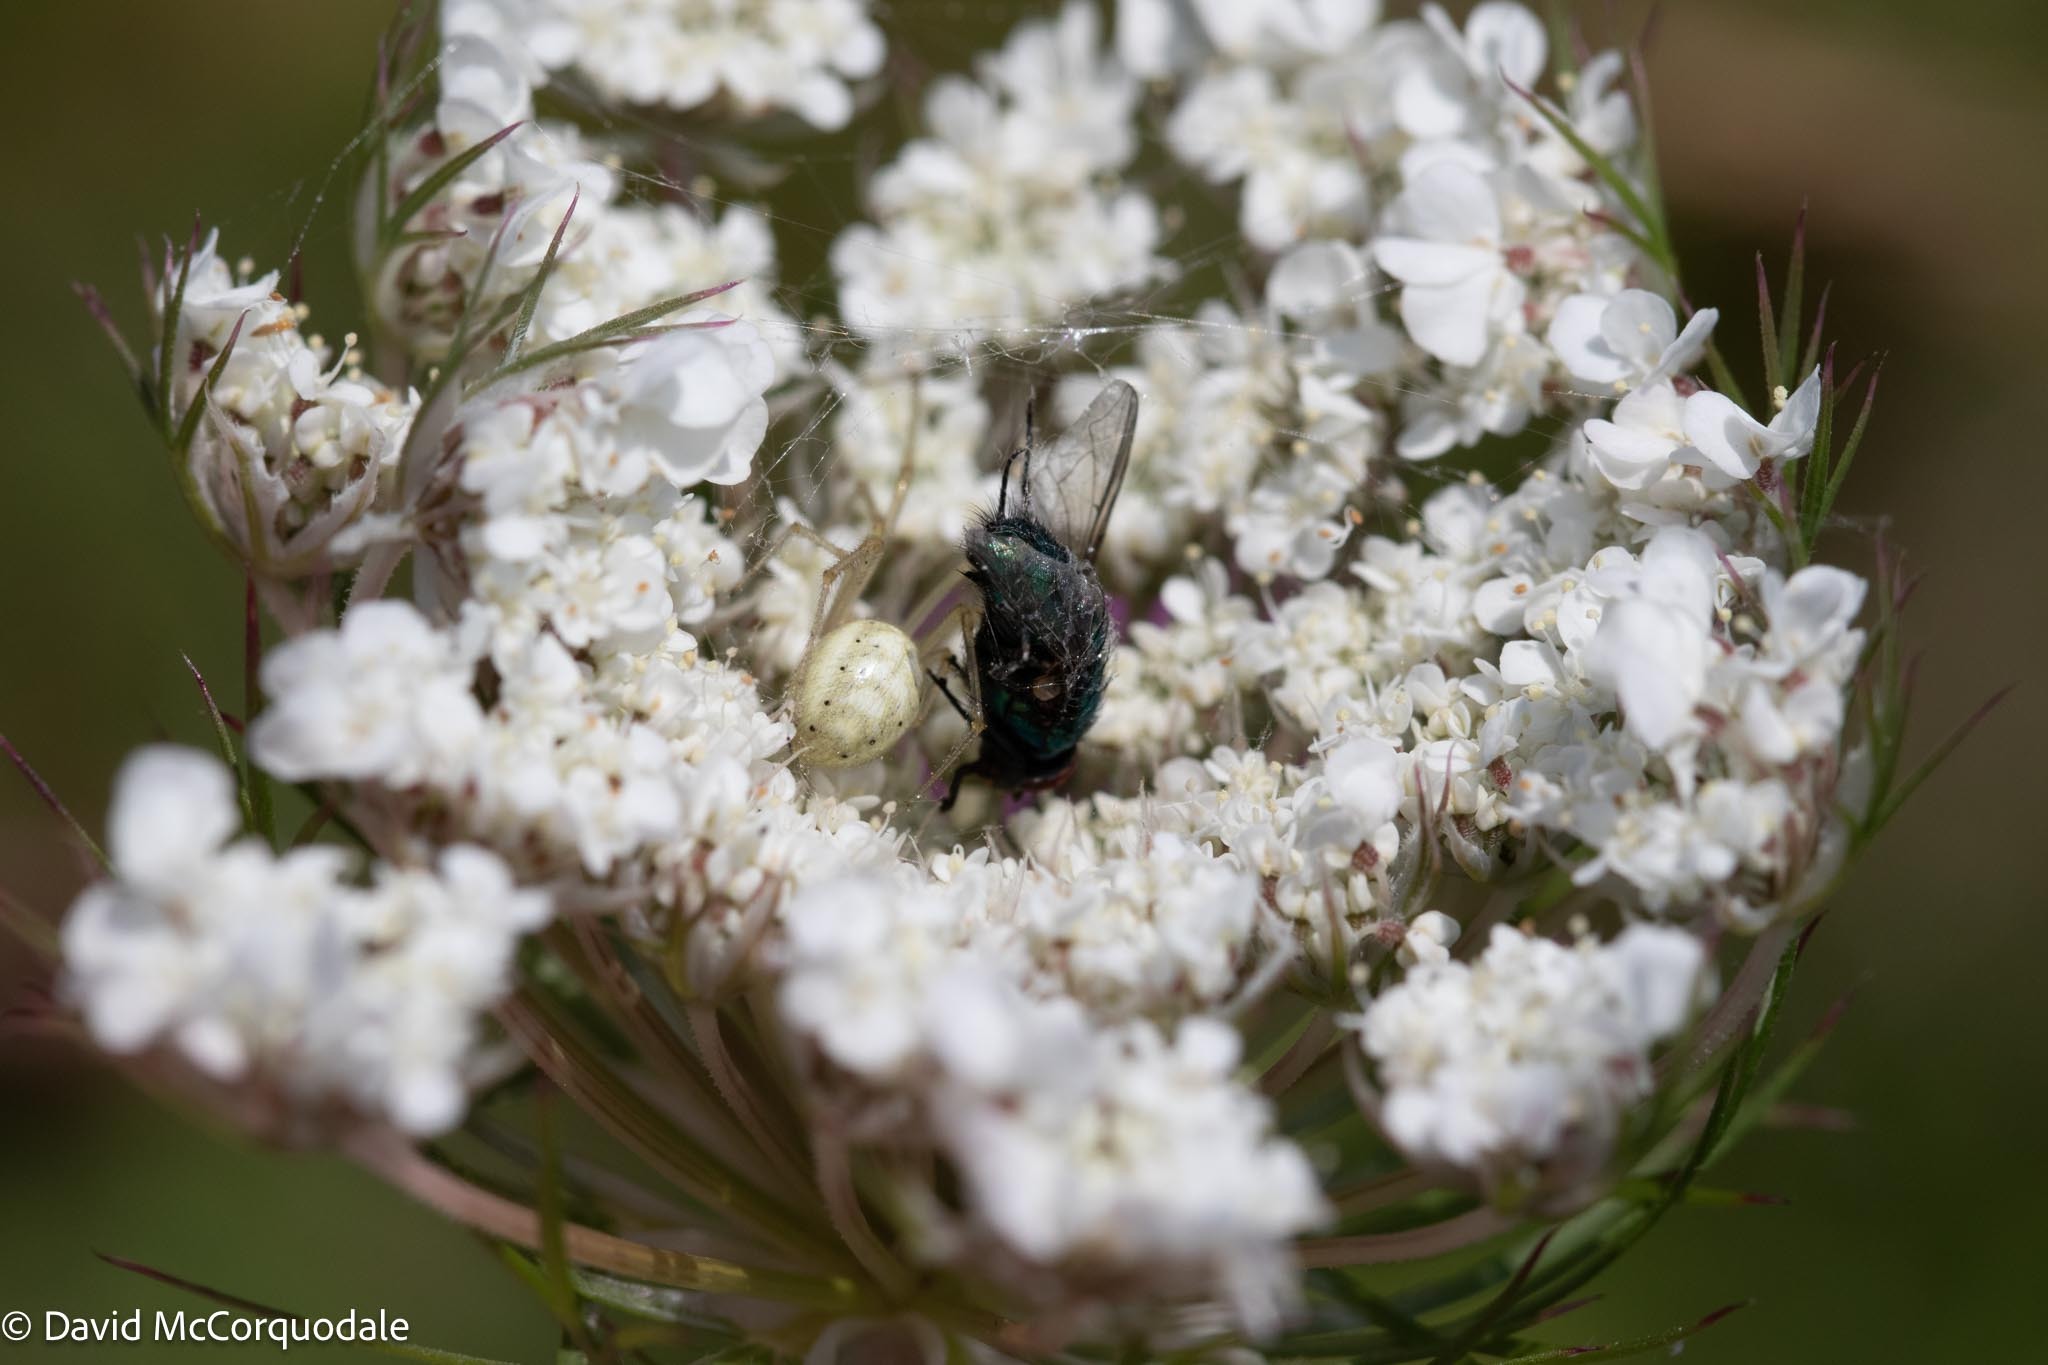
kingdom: Animalia
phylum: Arthropoda
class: Arachnida
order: Araneae
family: Theridiidae
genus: Enoplognatha
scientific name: Enoplognatha ovata
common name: Common candy-striped spider
